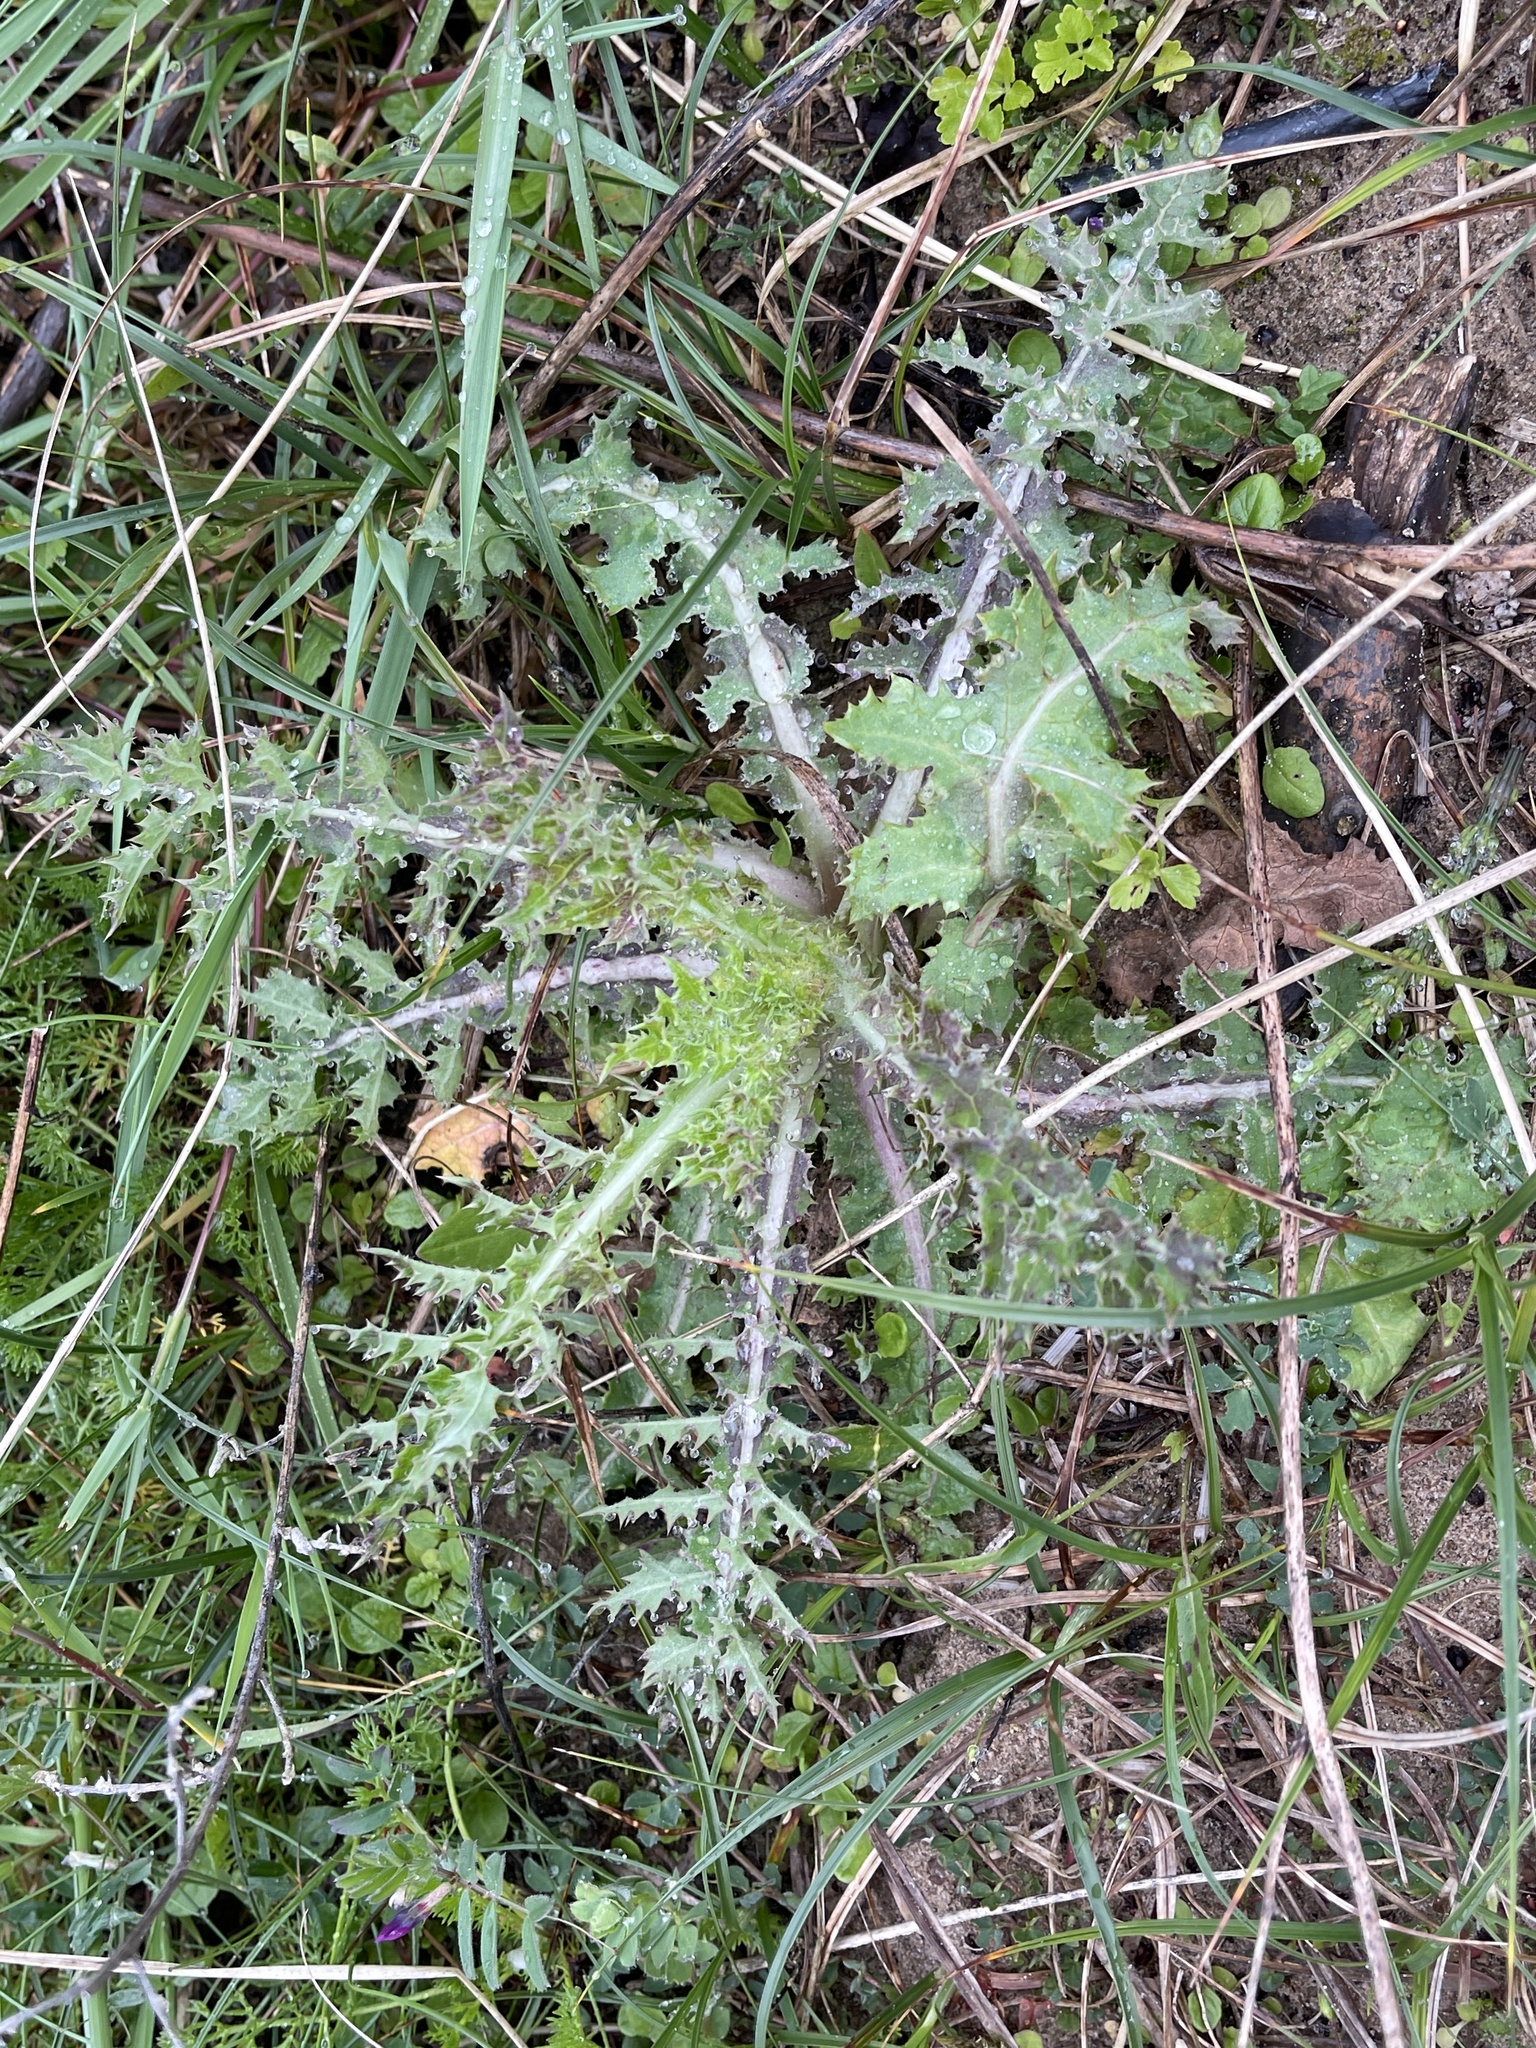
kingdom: Plantae
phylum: Tracheophyta
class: Magnoliopsida
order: Asterales
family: Asteraceae
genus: Sonchus
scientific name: Sonchus asper
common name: Prickly sow-thistle
